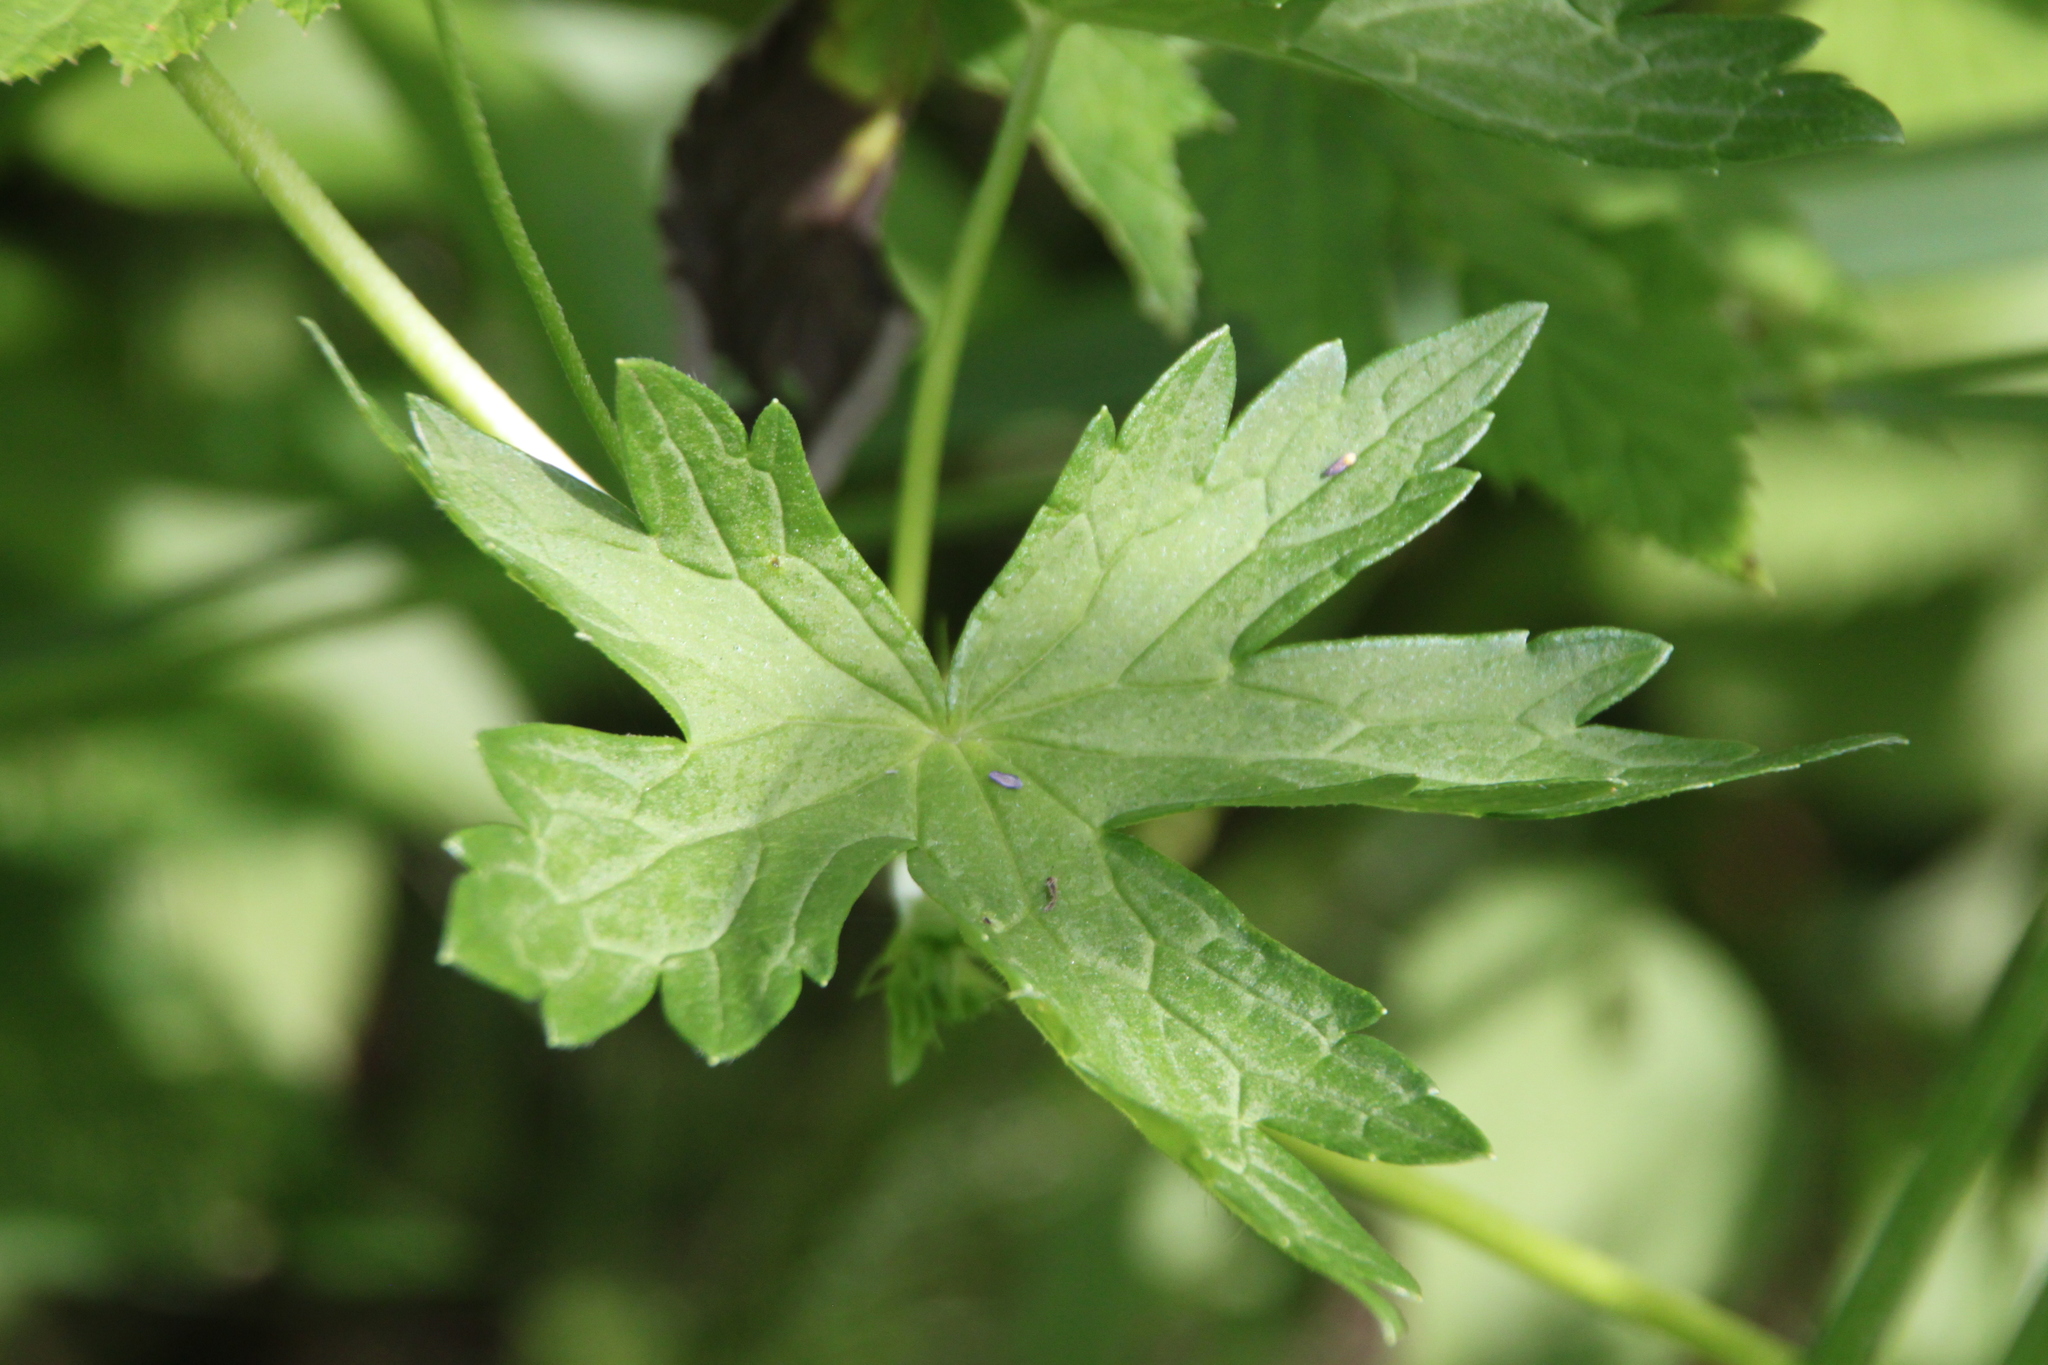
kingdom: Plantae
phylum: Tracheophyta
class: Magnoliopsida
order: Geraniales
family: Geraniaceae
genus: Geranium
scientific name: Geranium palustre
